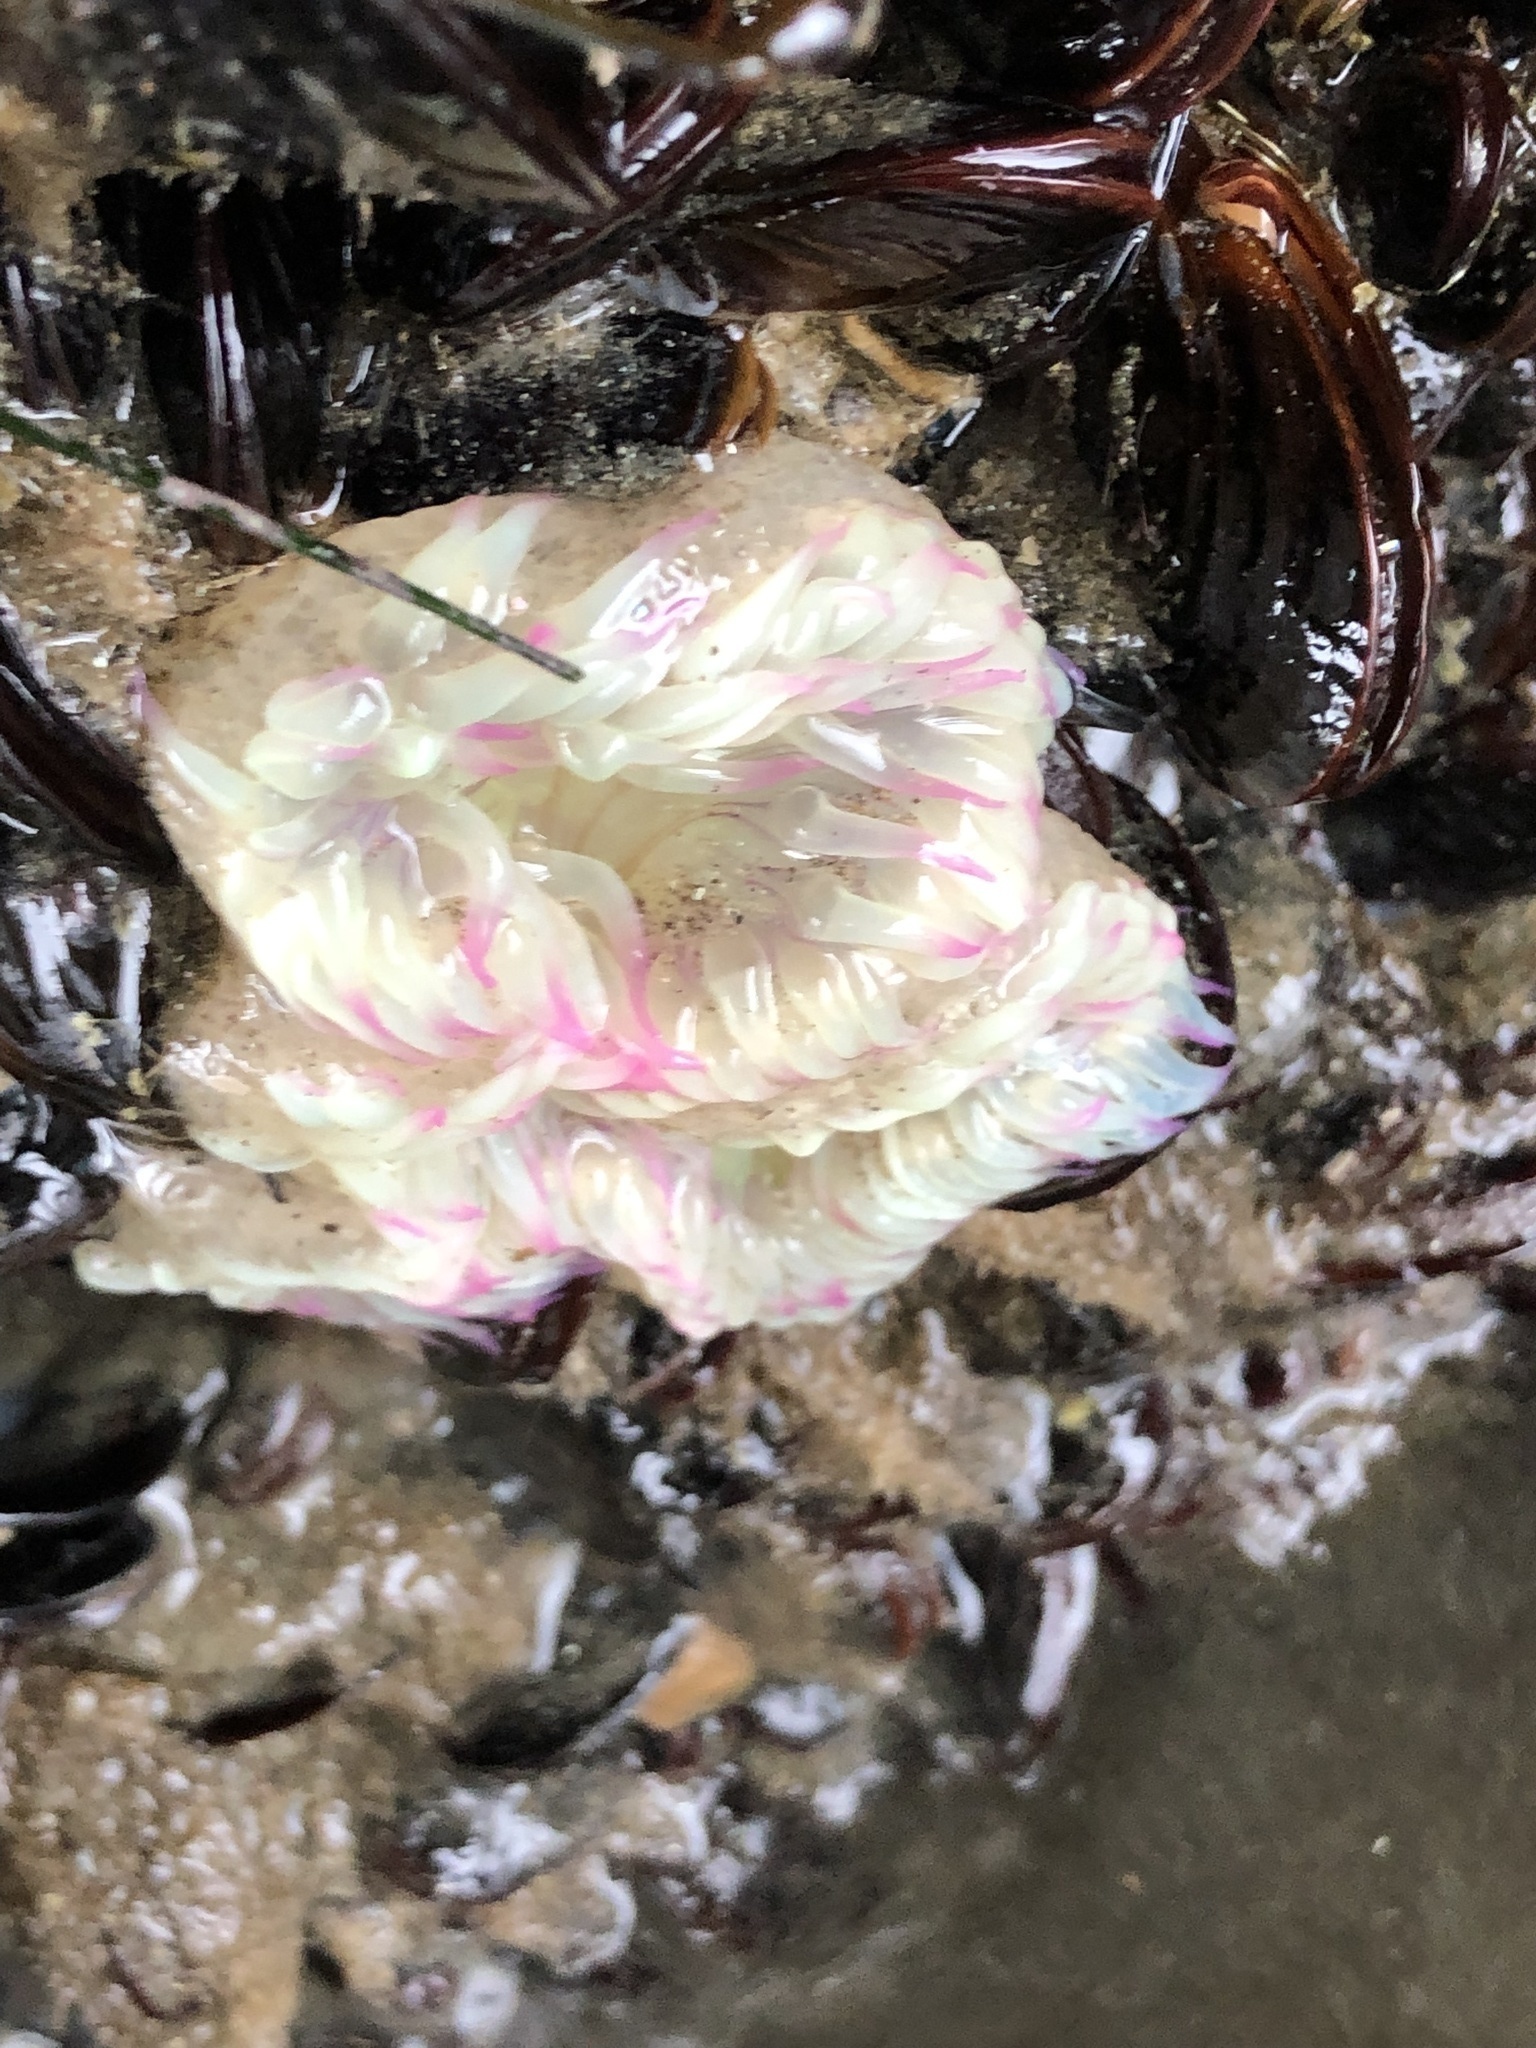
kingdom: Animalia
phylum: Cnidaria
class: Anthozoa
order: Actiniaria
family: Actiniidae
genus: Anthopleura
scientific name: Anthopleura elegantissima
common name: Clonal anemone
